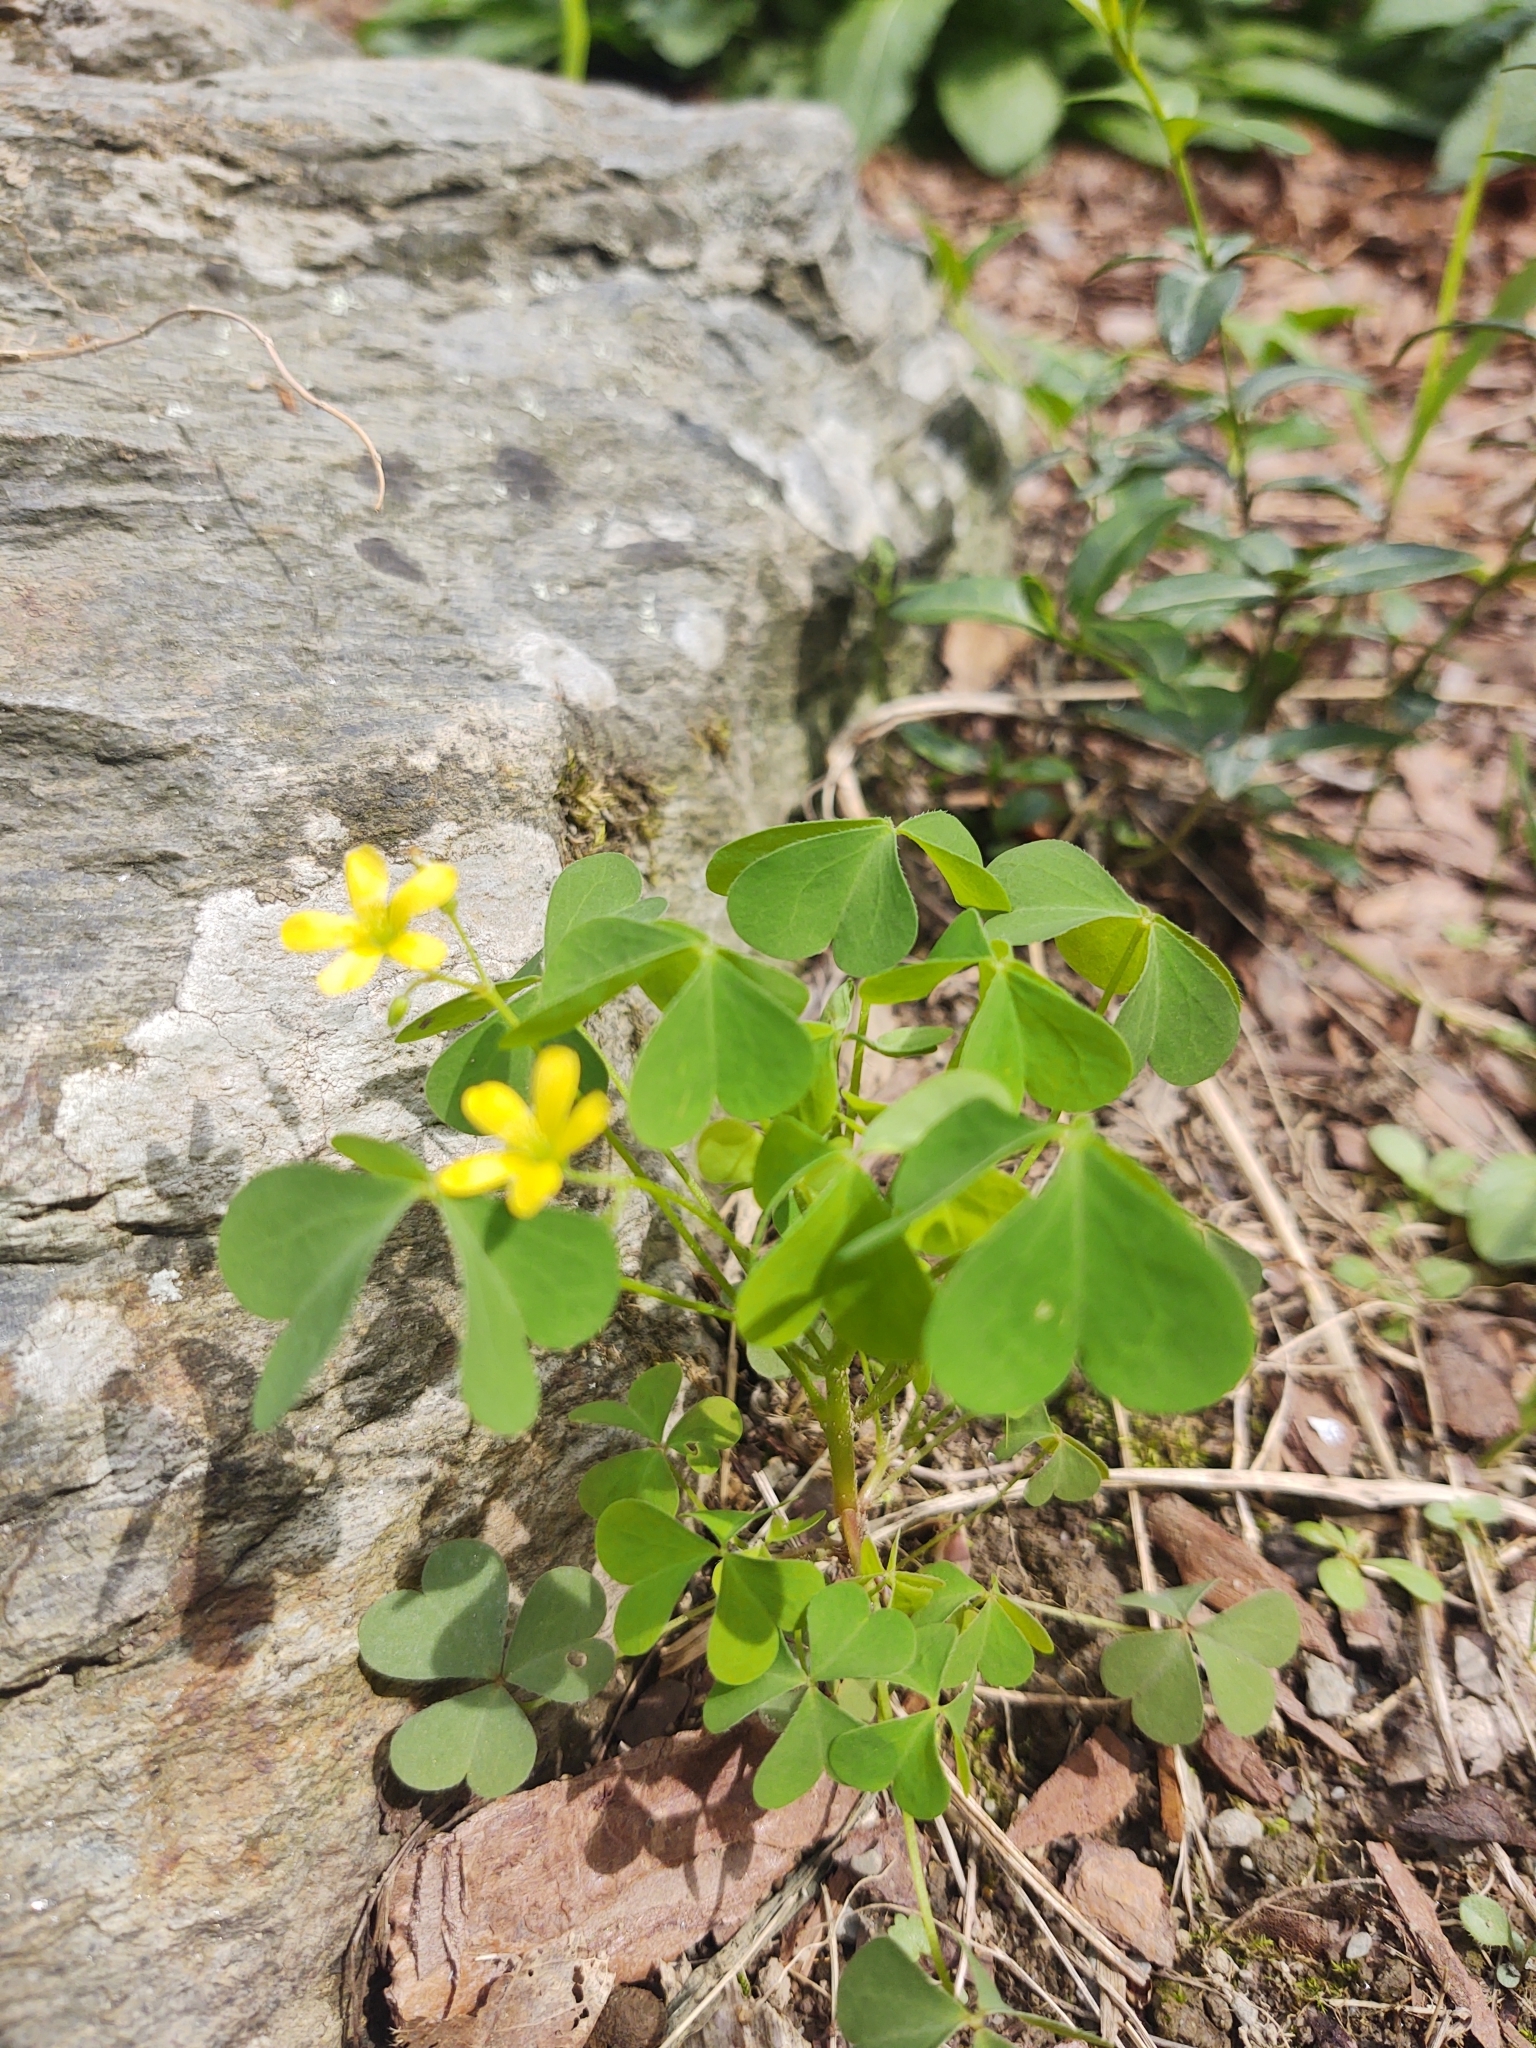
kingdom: Plantae
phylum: Tracheophyta
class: Magnoliopsida
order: Oxalidales
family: Oxalidaceae
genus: Oxalis
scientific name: Oxalis stricta
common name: Upright yellow-sorrel
